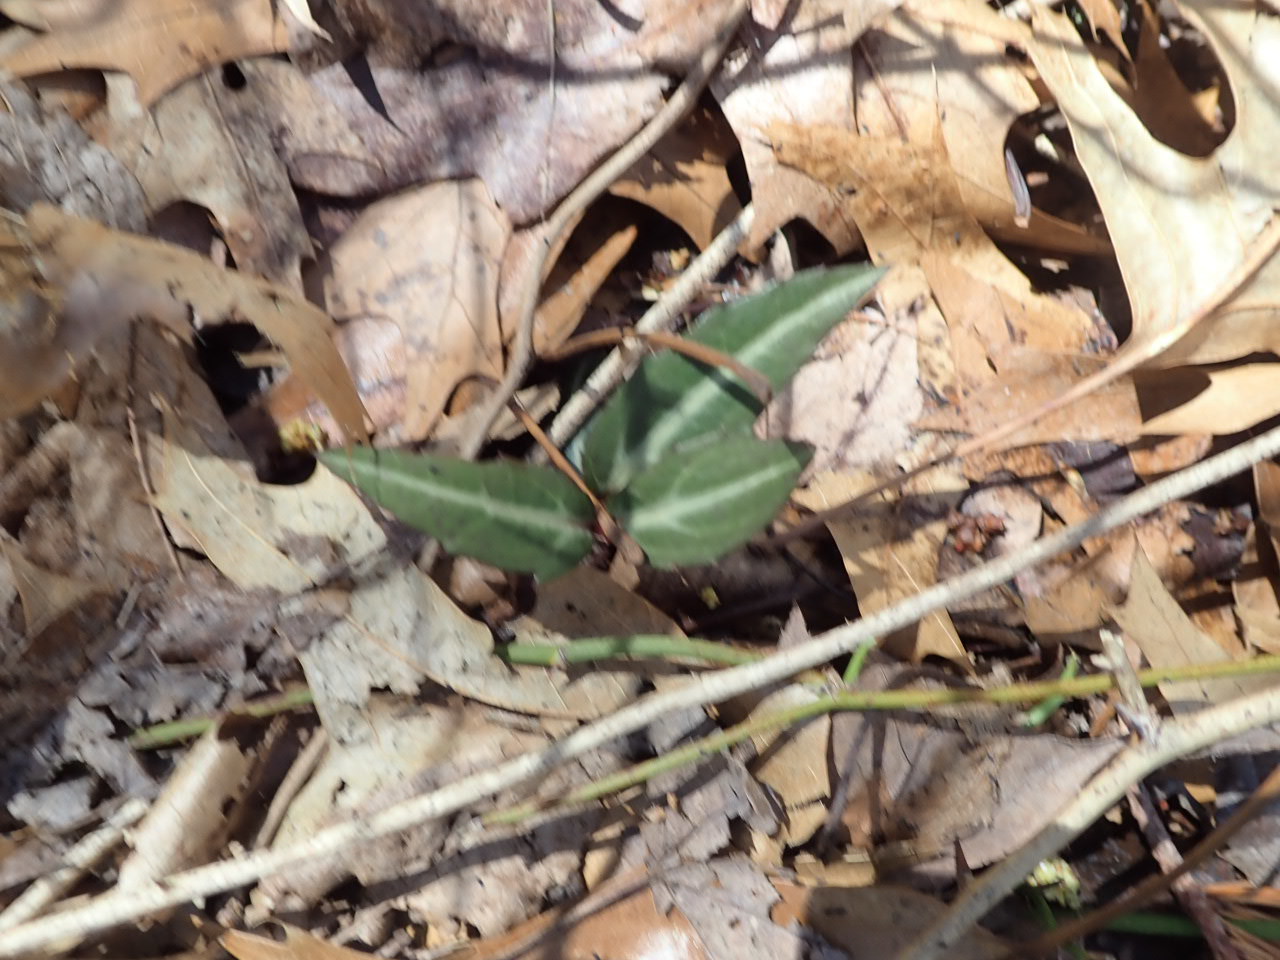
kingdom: Plantae
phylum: Tracheophyta
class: Magnoliopsida
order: Ericales
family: Ericaceae
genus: Chimaphila
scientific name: Chimaphila maculata
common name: Spotted pipsissewa
